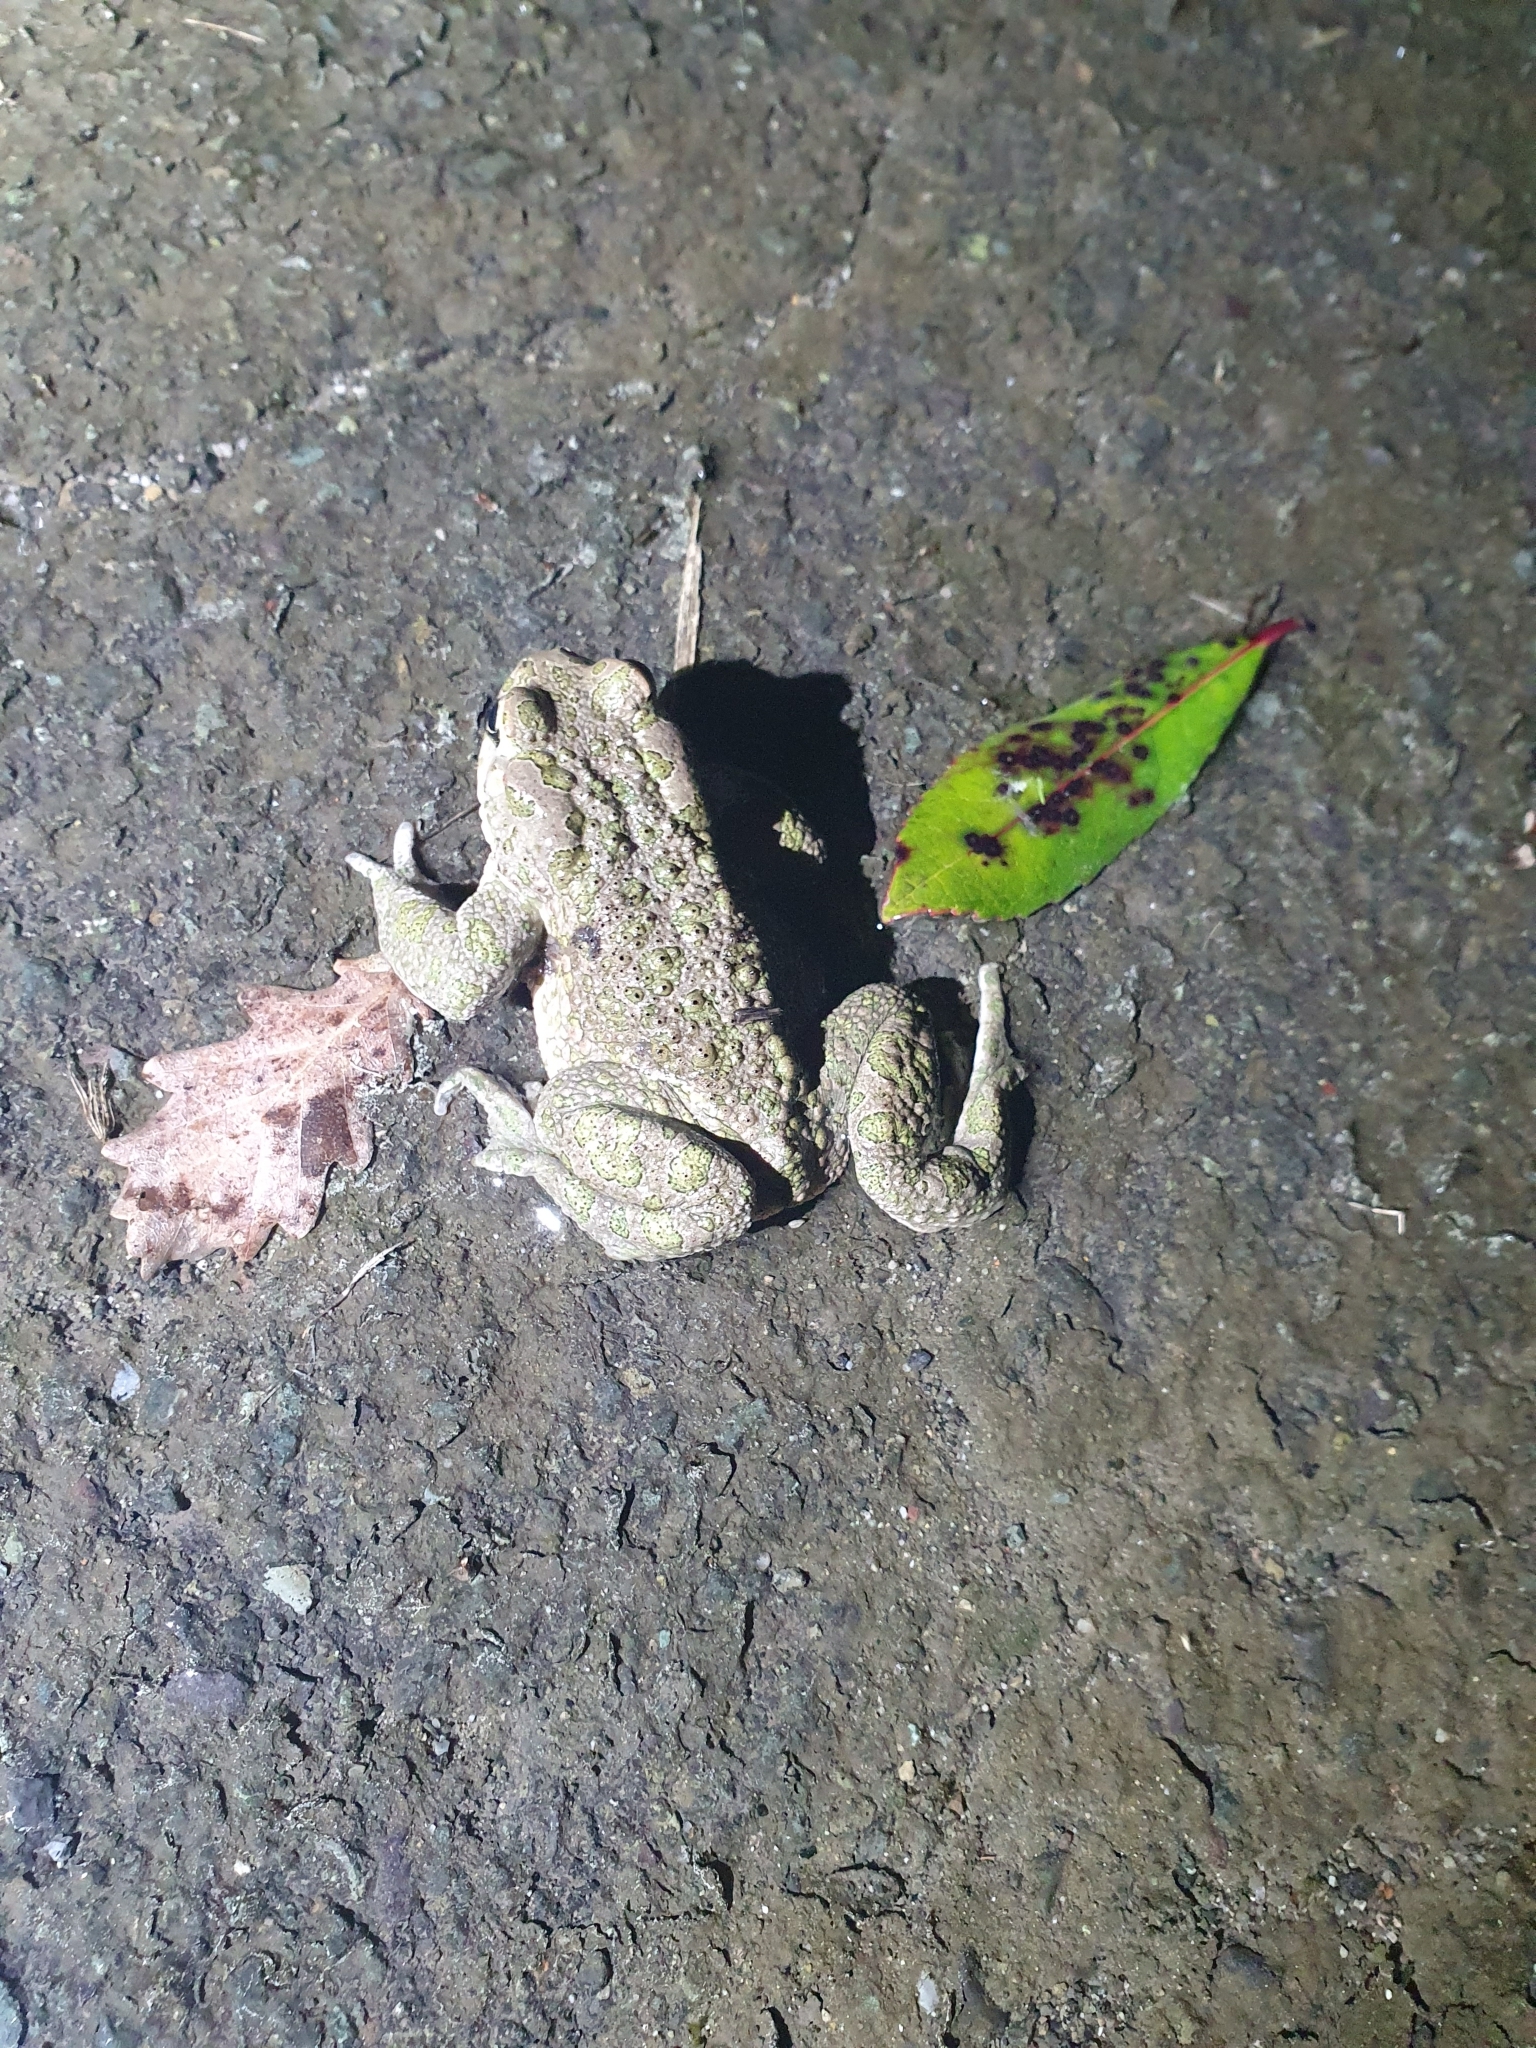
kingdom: Animalia
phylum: Chordata
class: Amphibia
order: Anura
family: Bufonidae
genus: Bufotes
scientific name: Bufotes viridis
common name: European green toad
